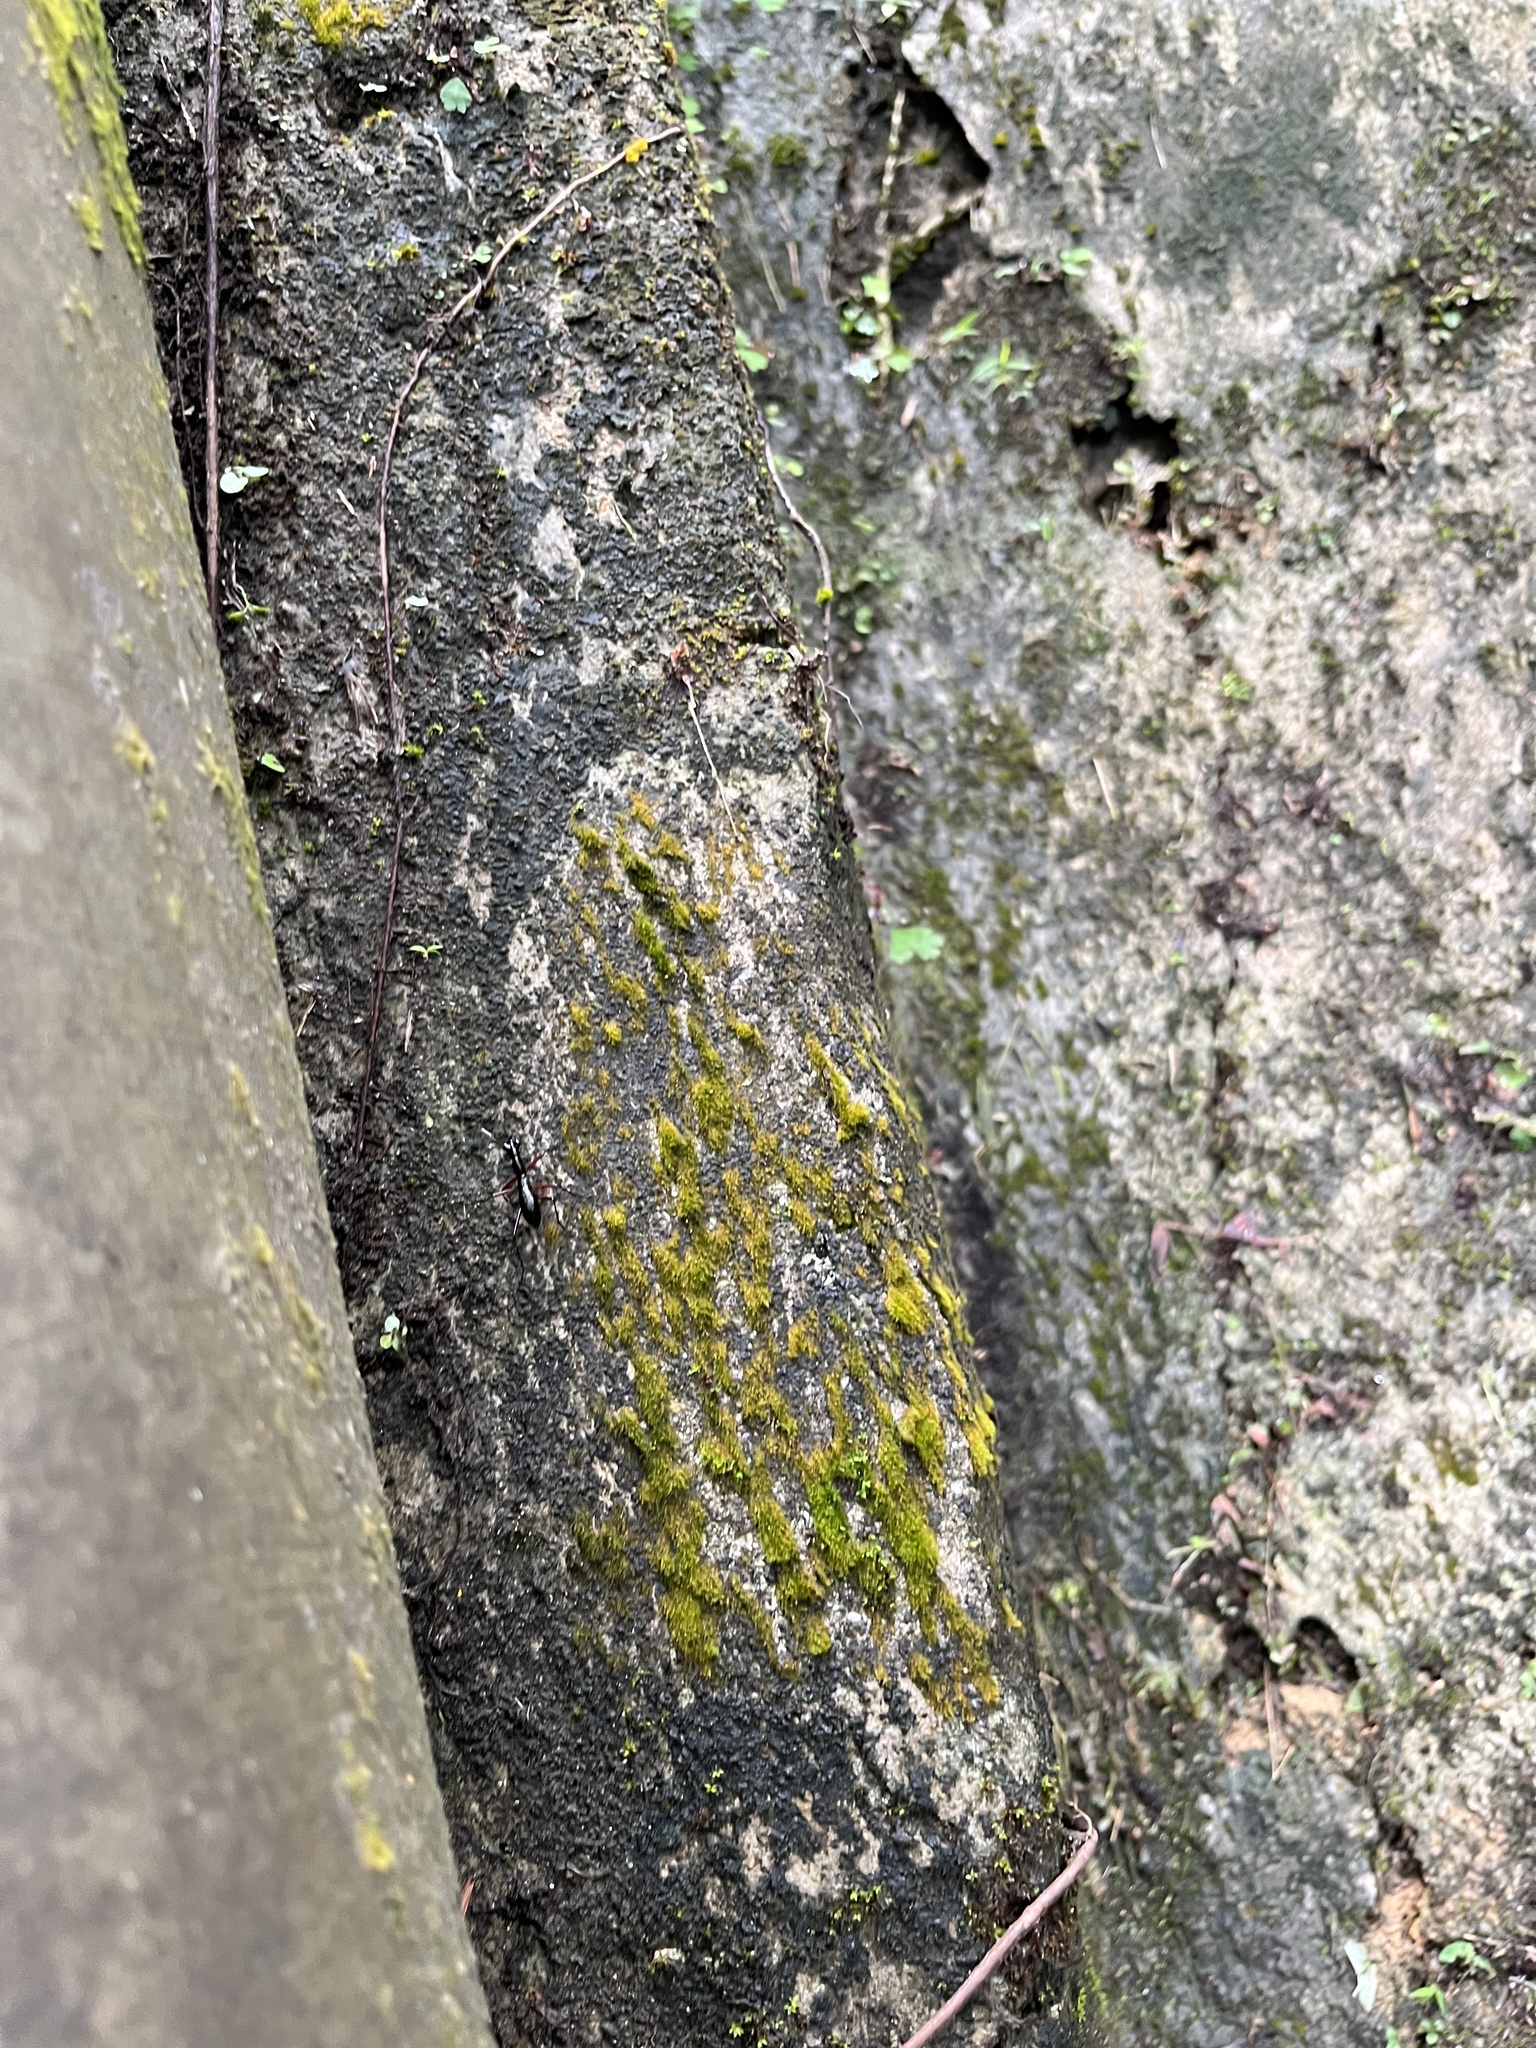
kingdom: Animalia
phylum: Arthropoda
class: Insecta
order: Coleoptera
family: Carabidae
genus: Tricondyla
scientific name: Tricondyla pulchripes
